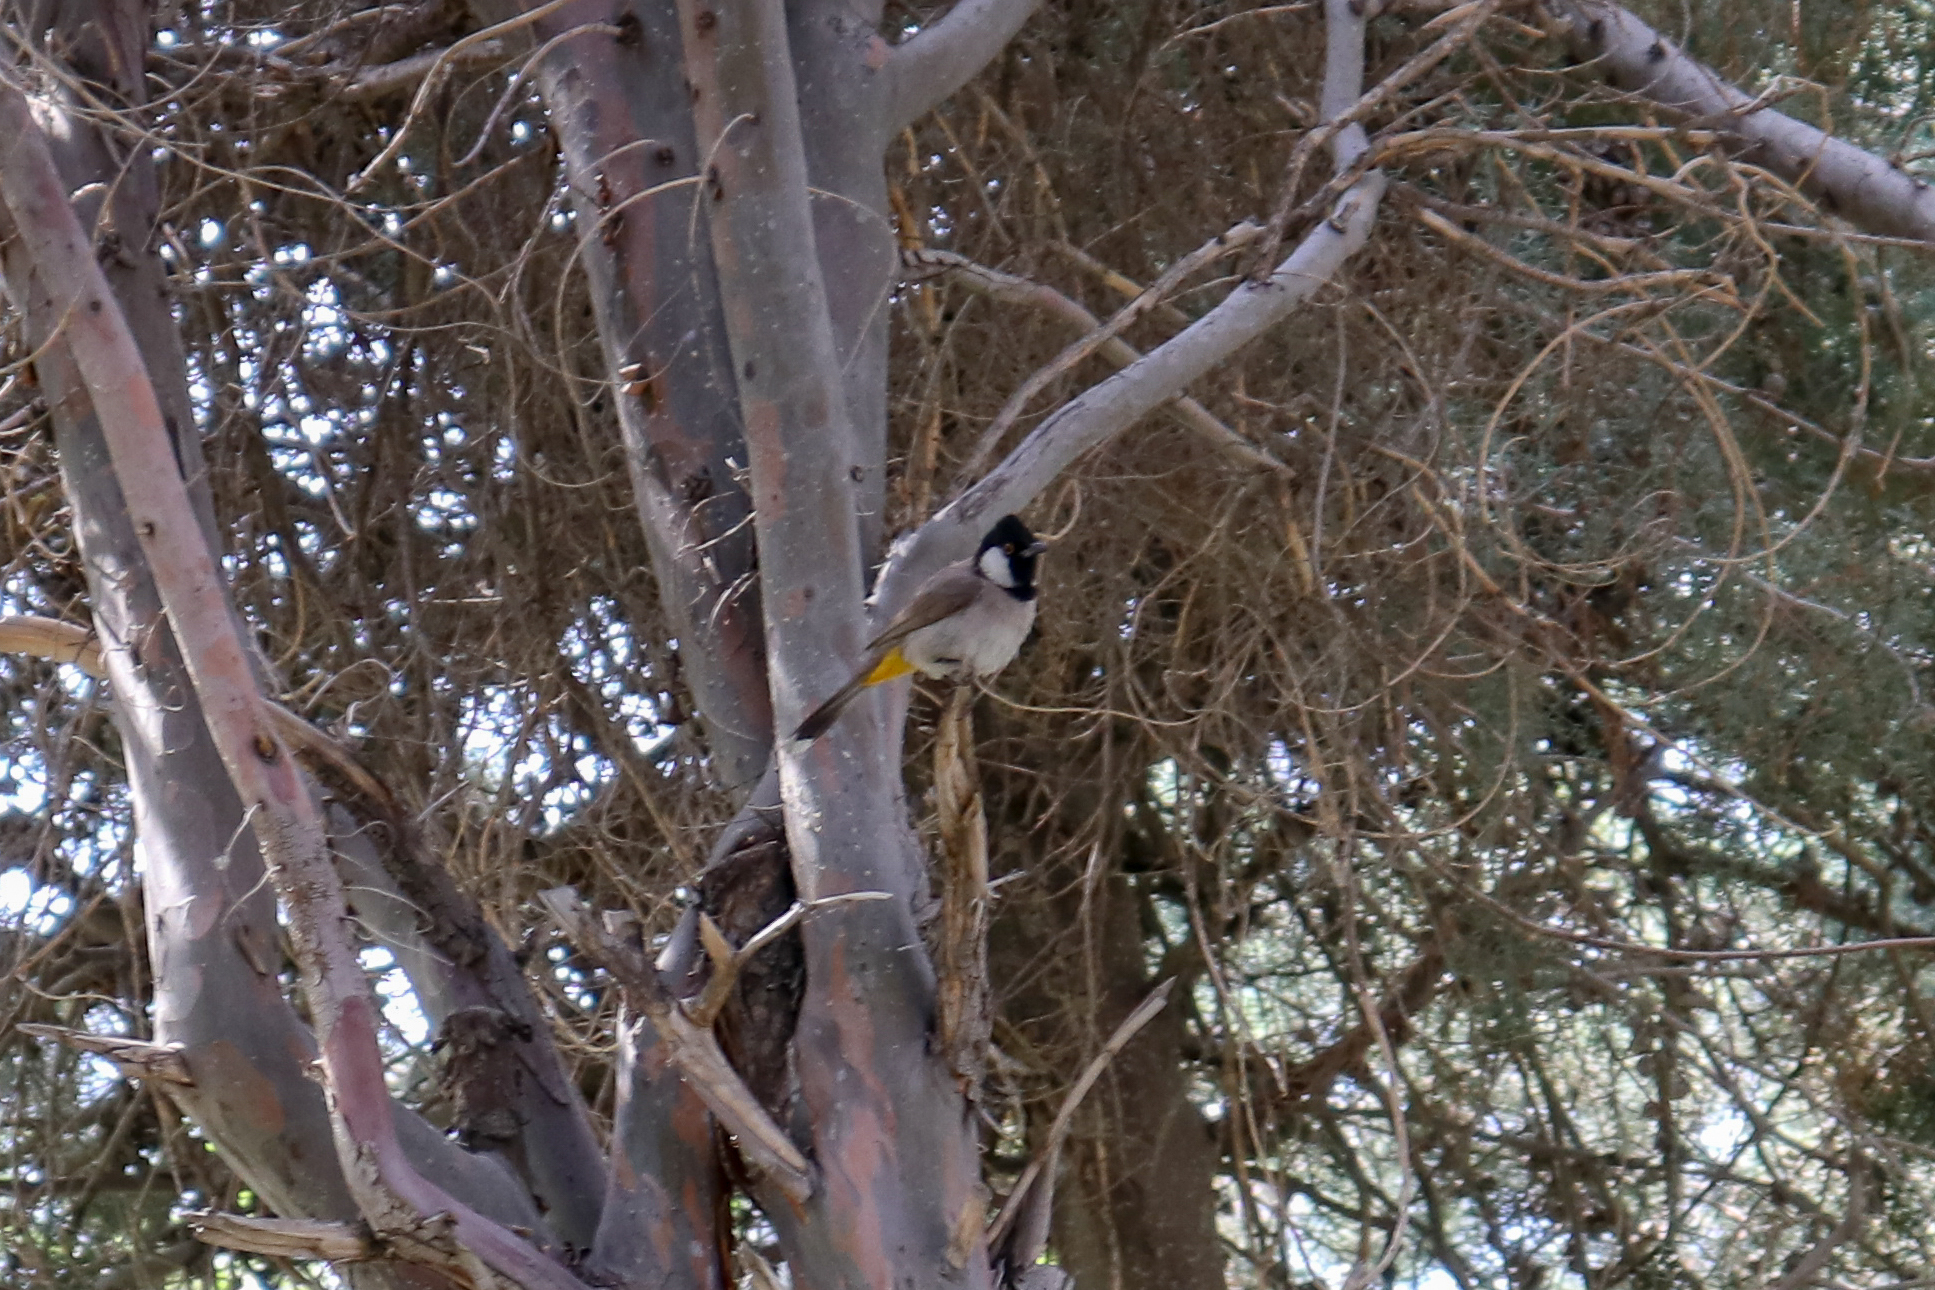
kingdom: Animalia
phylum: Chordata
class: Aves
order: Passeriformes
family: Pycnonotidae
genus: Pycnonotus
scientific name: Pycnonotus leucotis
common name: White-eared bulbul
